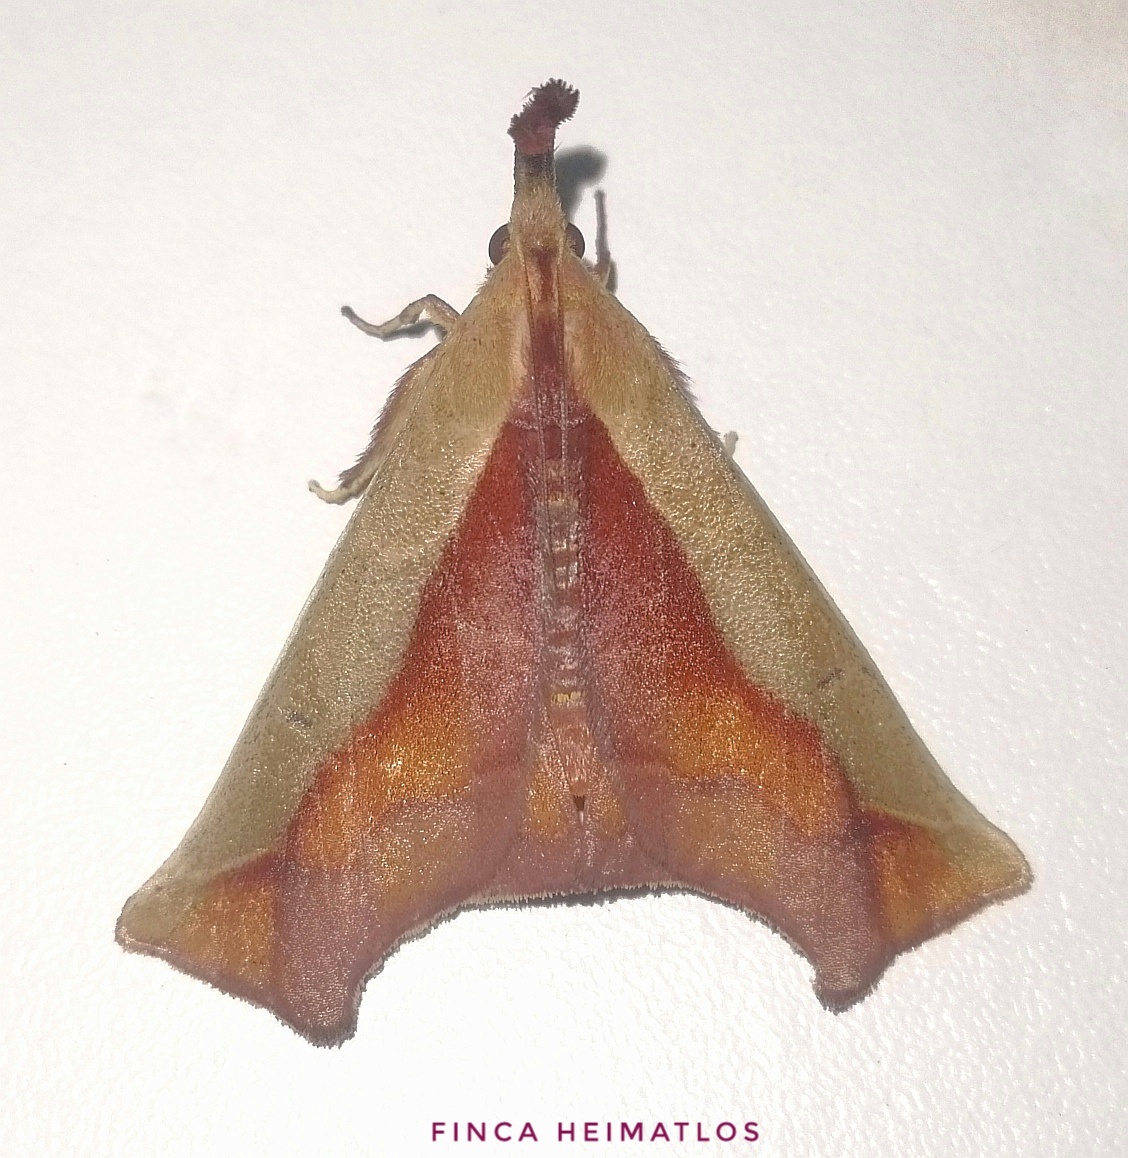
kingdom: Animalia
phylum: Arthropoda
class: Insecta
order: Lepidoptera
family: Pyralidae
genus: Arbinia
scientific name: Arbinia todilla
